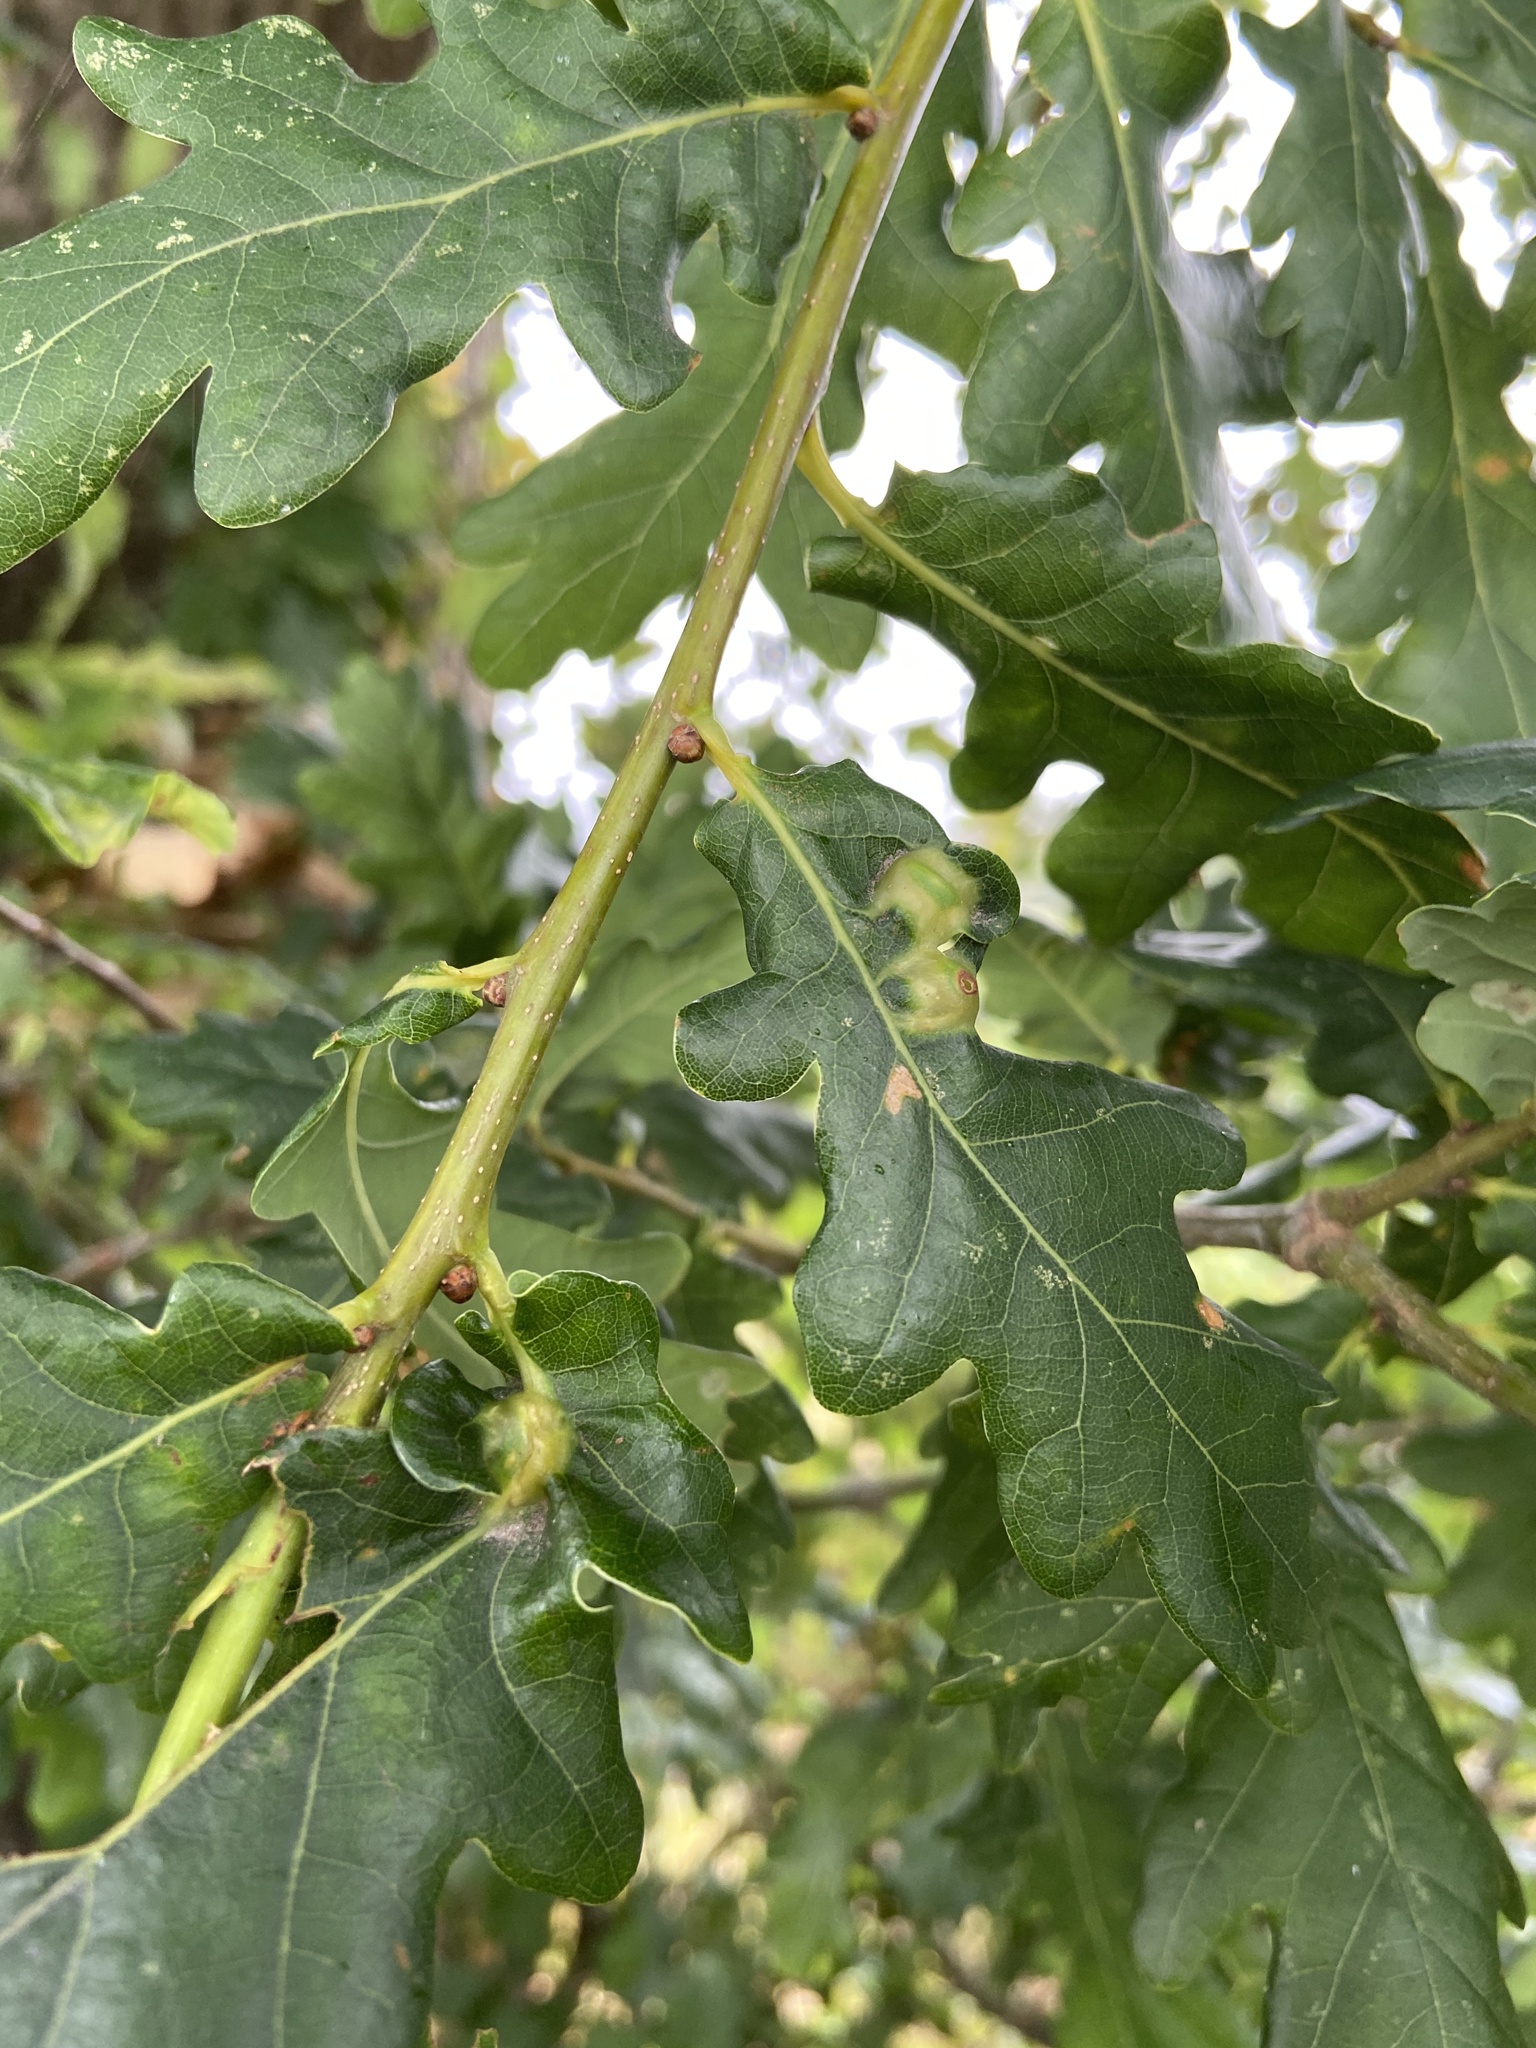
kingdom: Animalia
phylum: Arthropoda
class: Insecta
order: Hymenoptera
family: Cynipidae
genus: Andricus
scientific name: Andricus curvator
